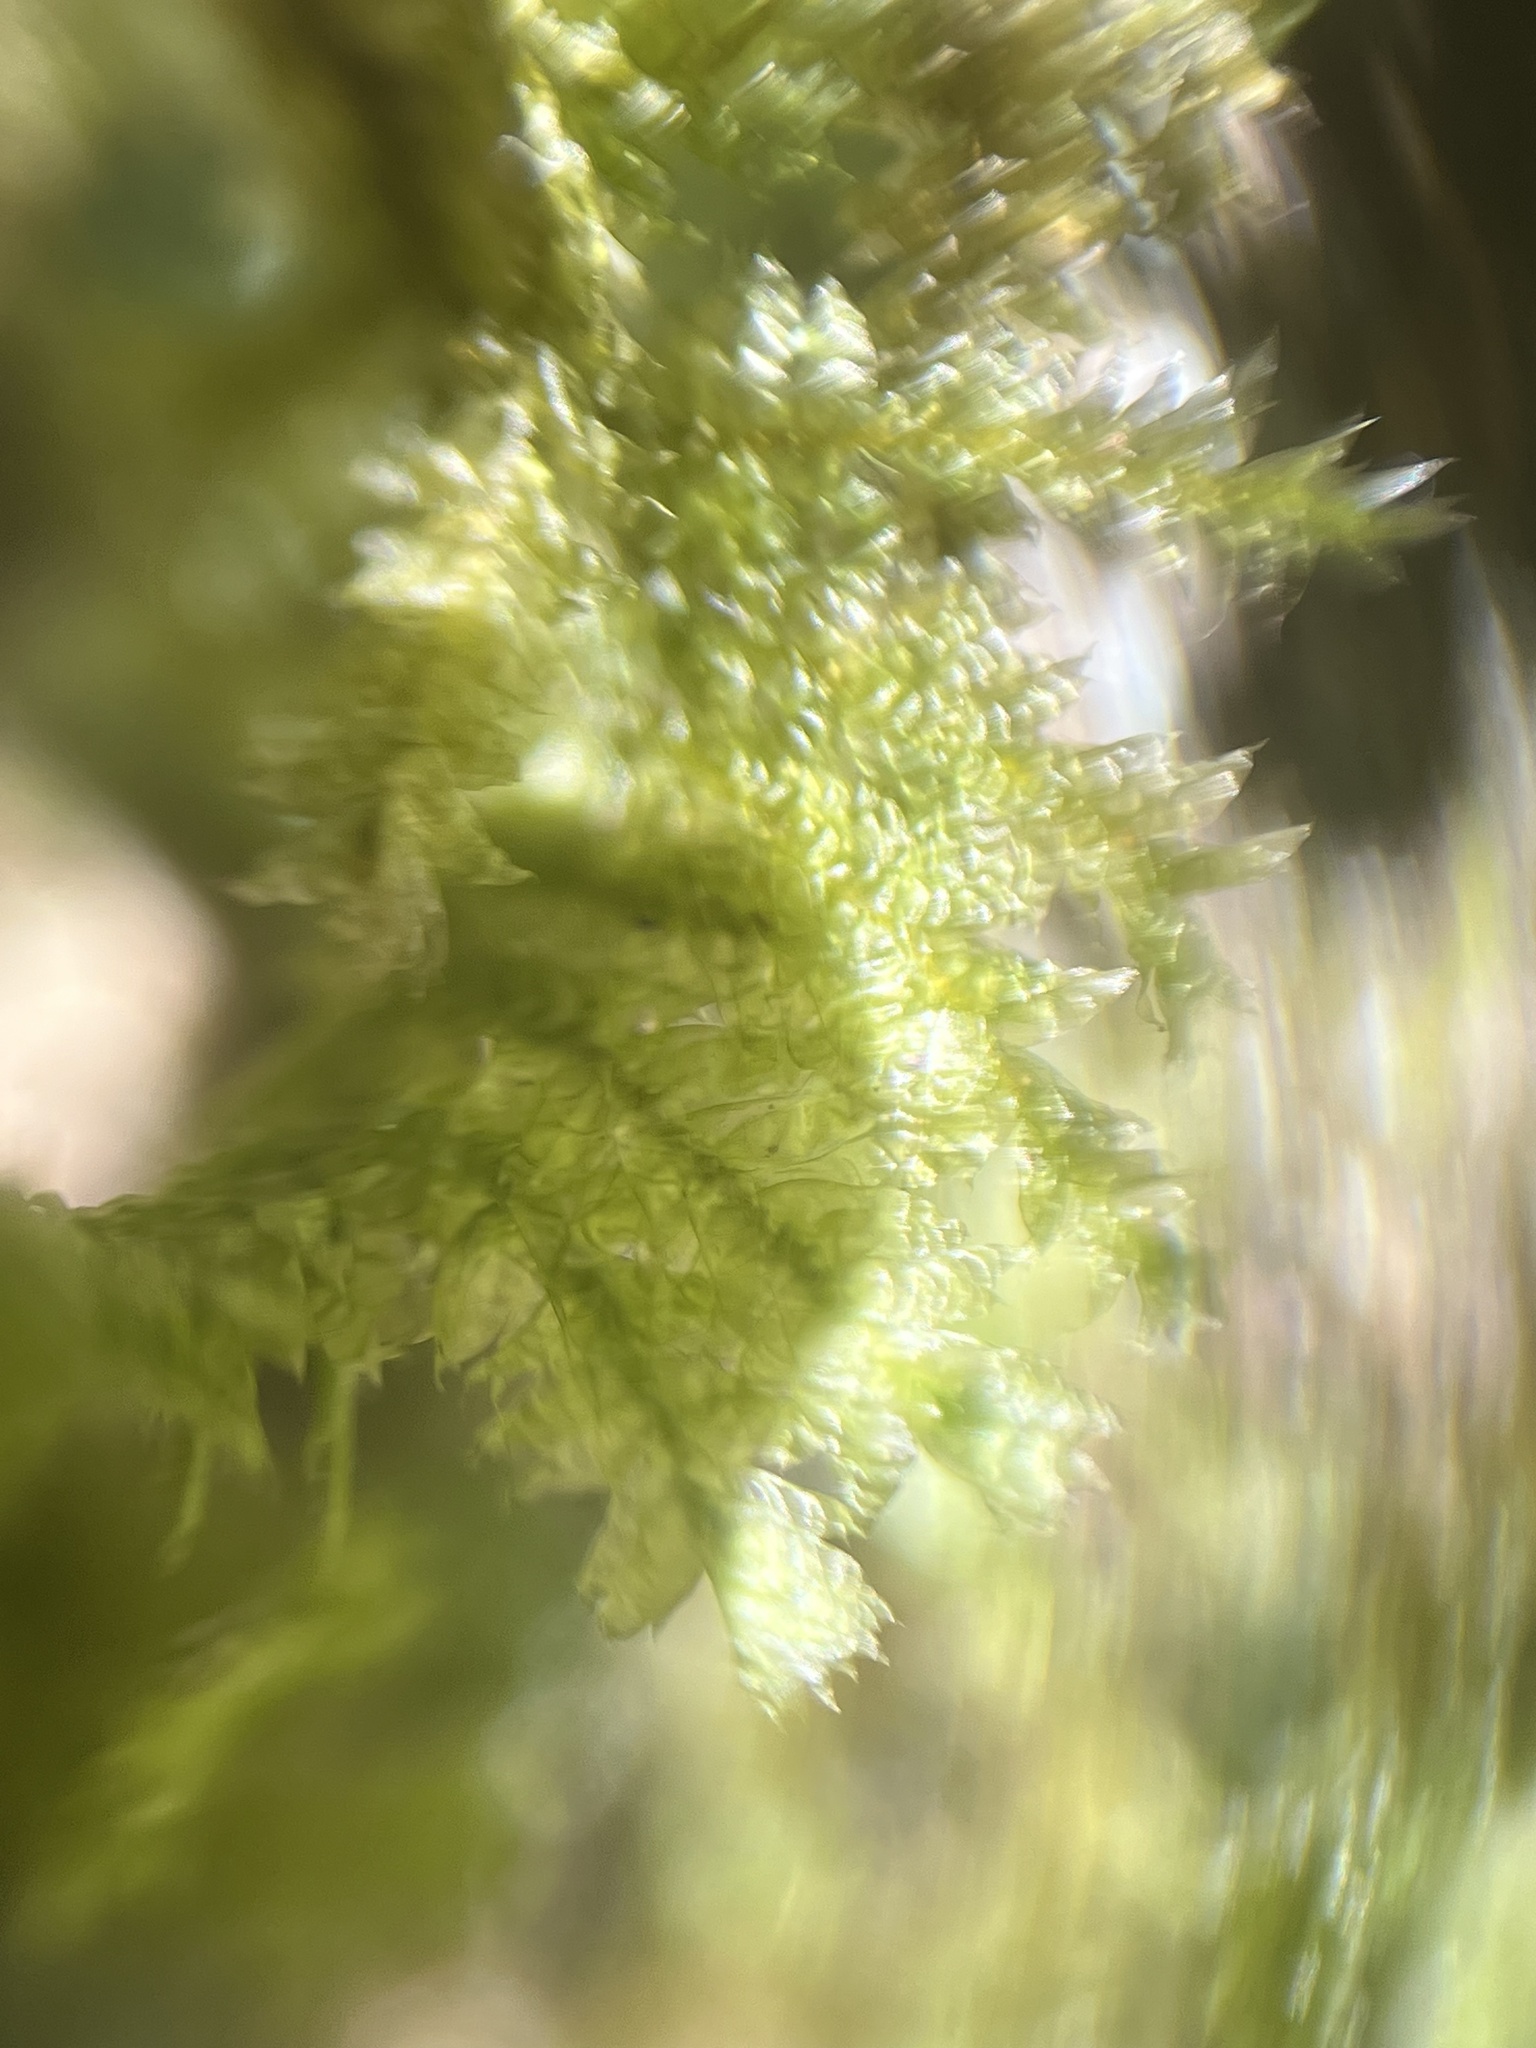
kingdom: Plantae
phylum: Bryophyta
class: Bryopsida
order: Hypnales
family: Neckeraceae
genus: Neckera
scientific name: Neckera pennata
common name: Feathery neckera
